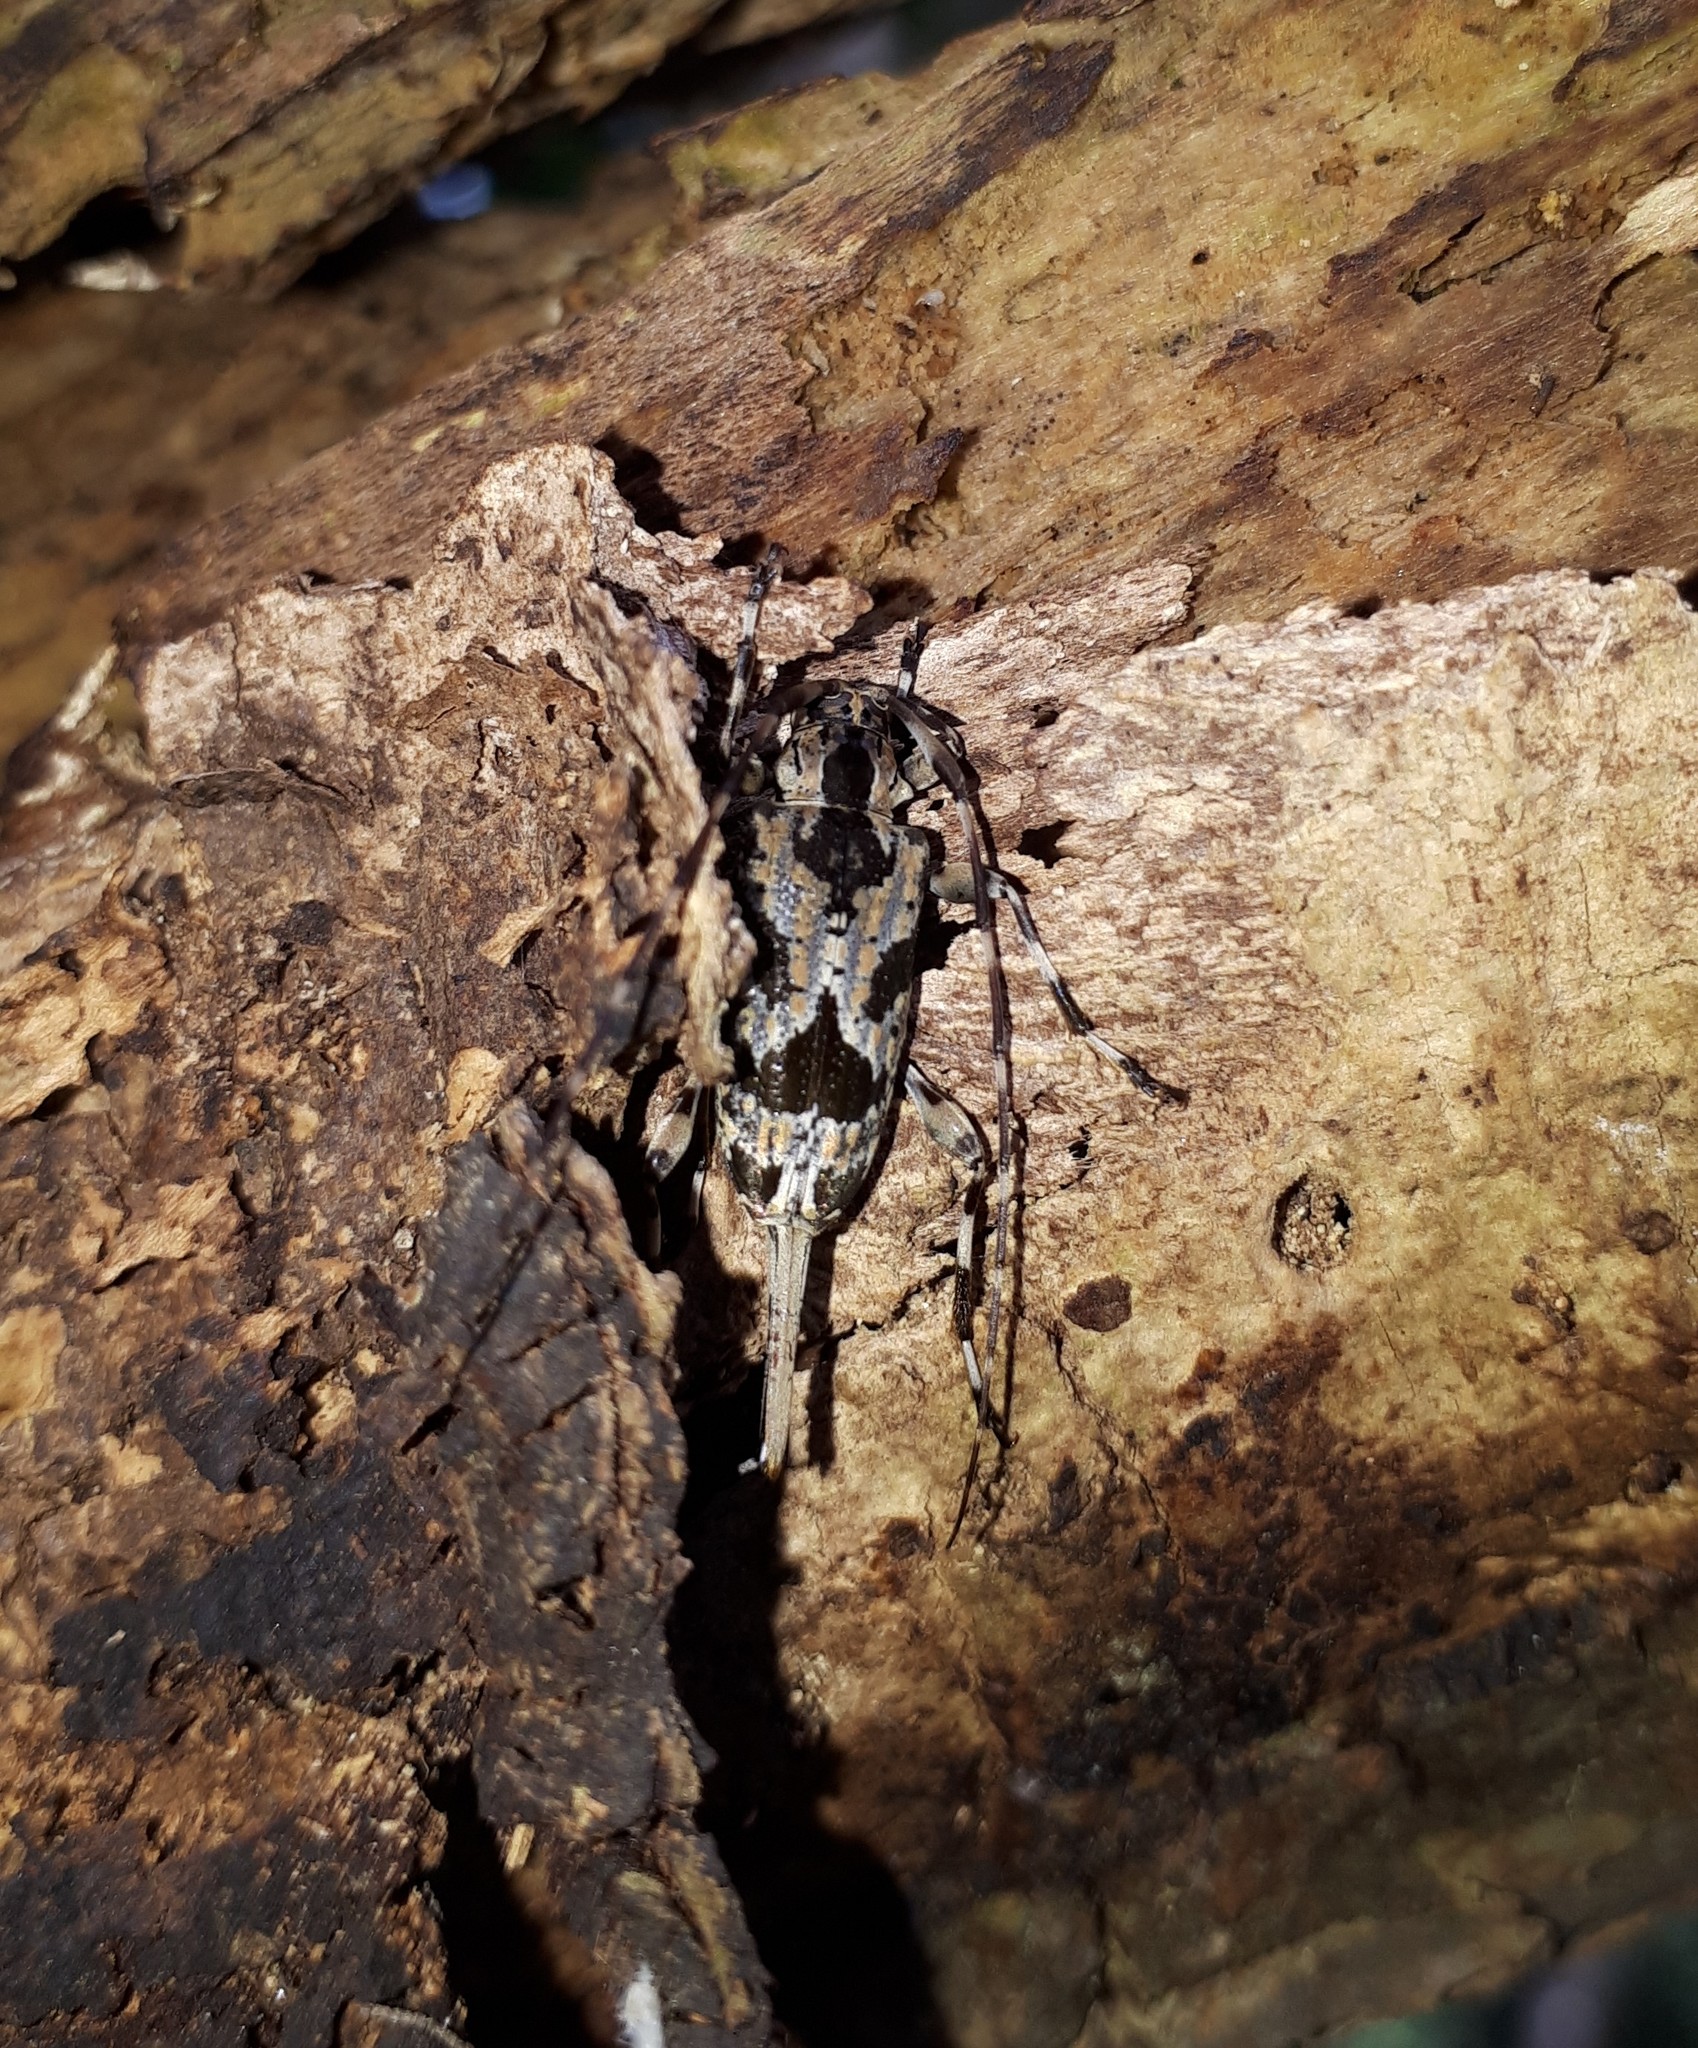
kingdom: Animalia
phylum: Arthropoda
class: Insecta
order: Coleoptera
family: Cerambycidae
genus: Eutrypanus
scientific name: Eutrypanus dorsalis
